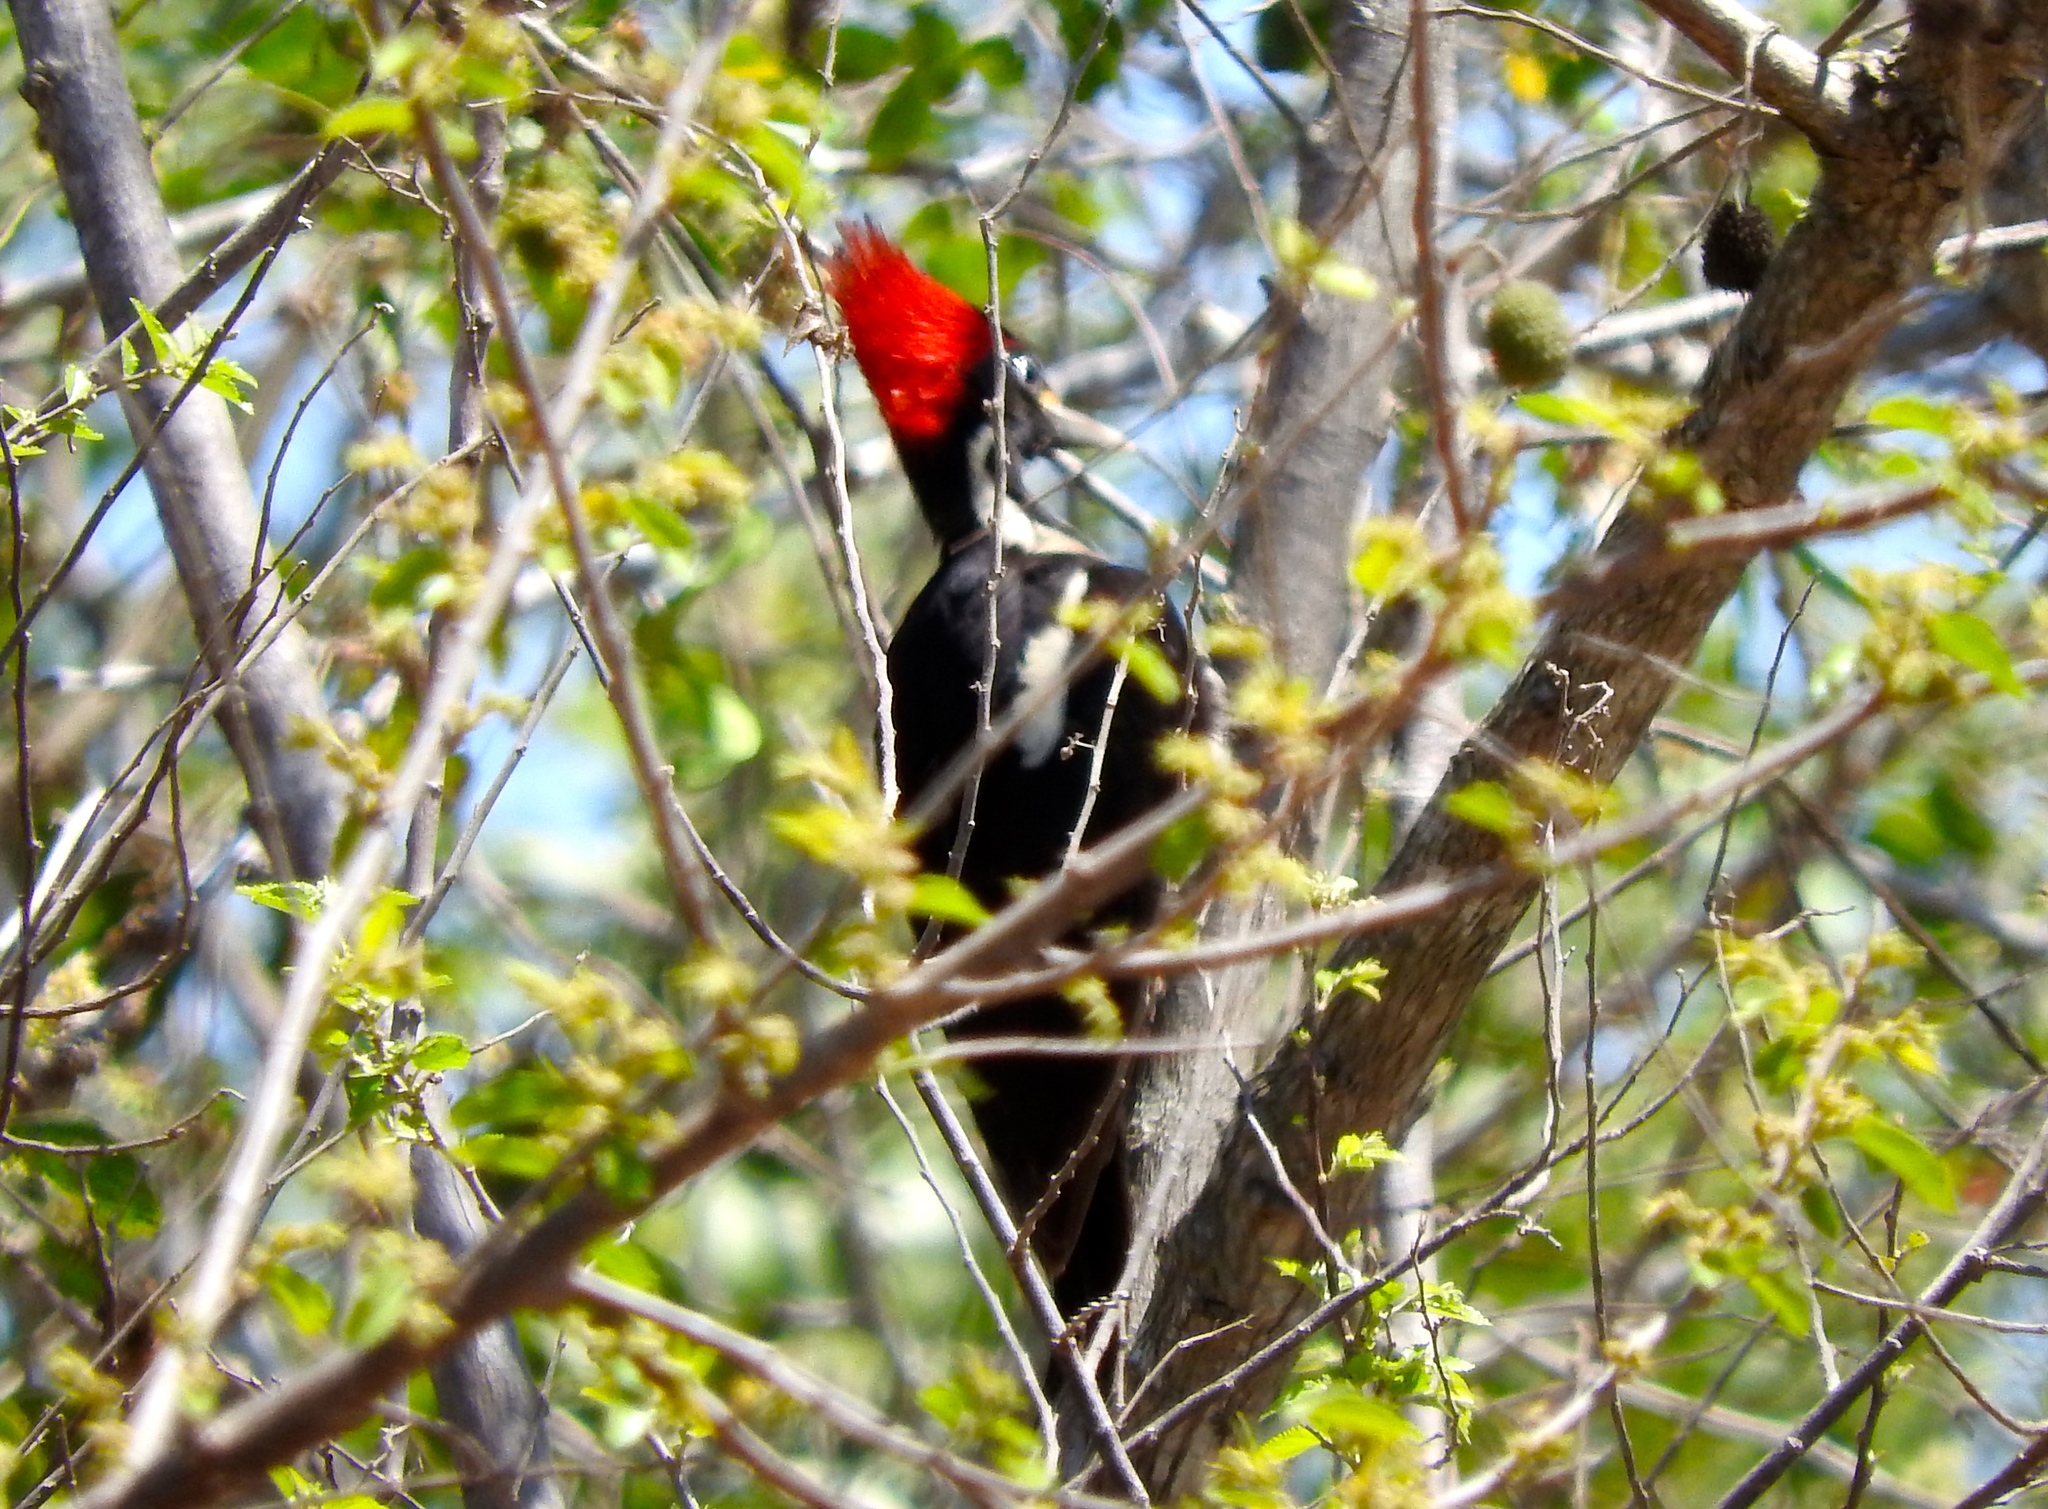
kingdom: Animalia
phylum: Chordata
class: Aves
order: Piciformes
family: Picidae
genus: Dryocopus
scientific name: Dryocopus lineatus
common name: Lineated woodpecker
